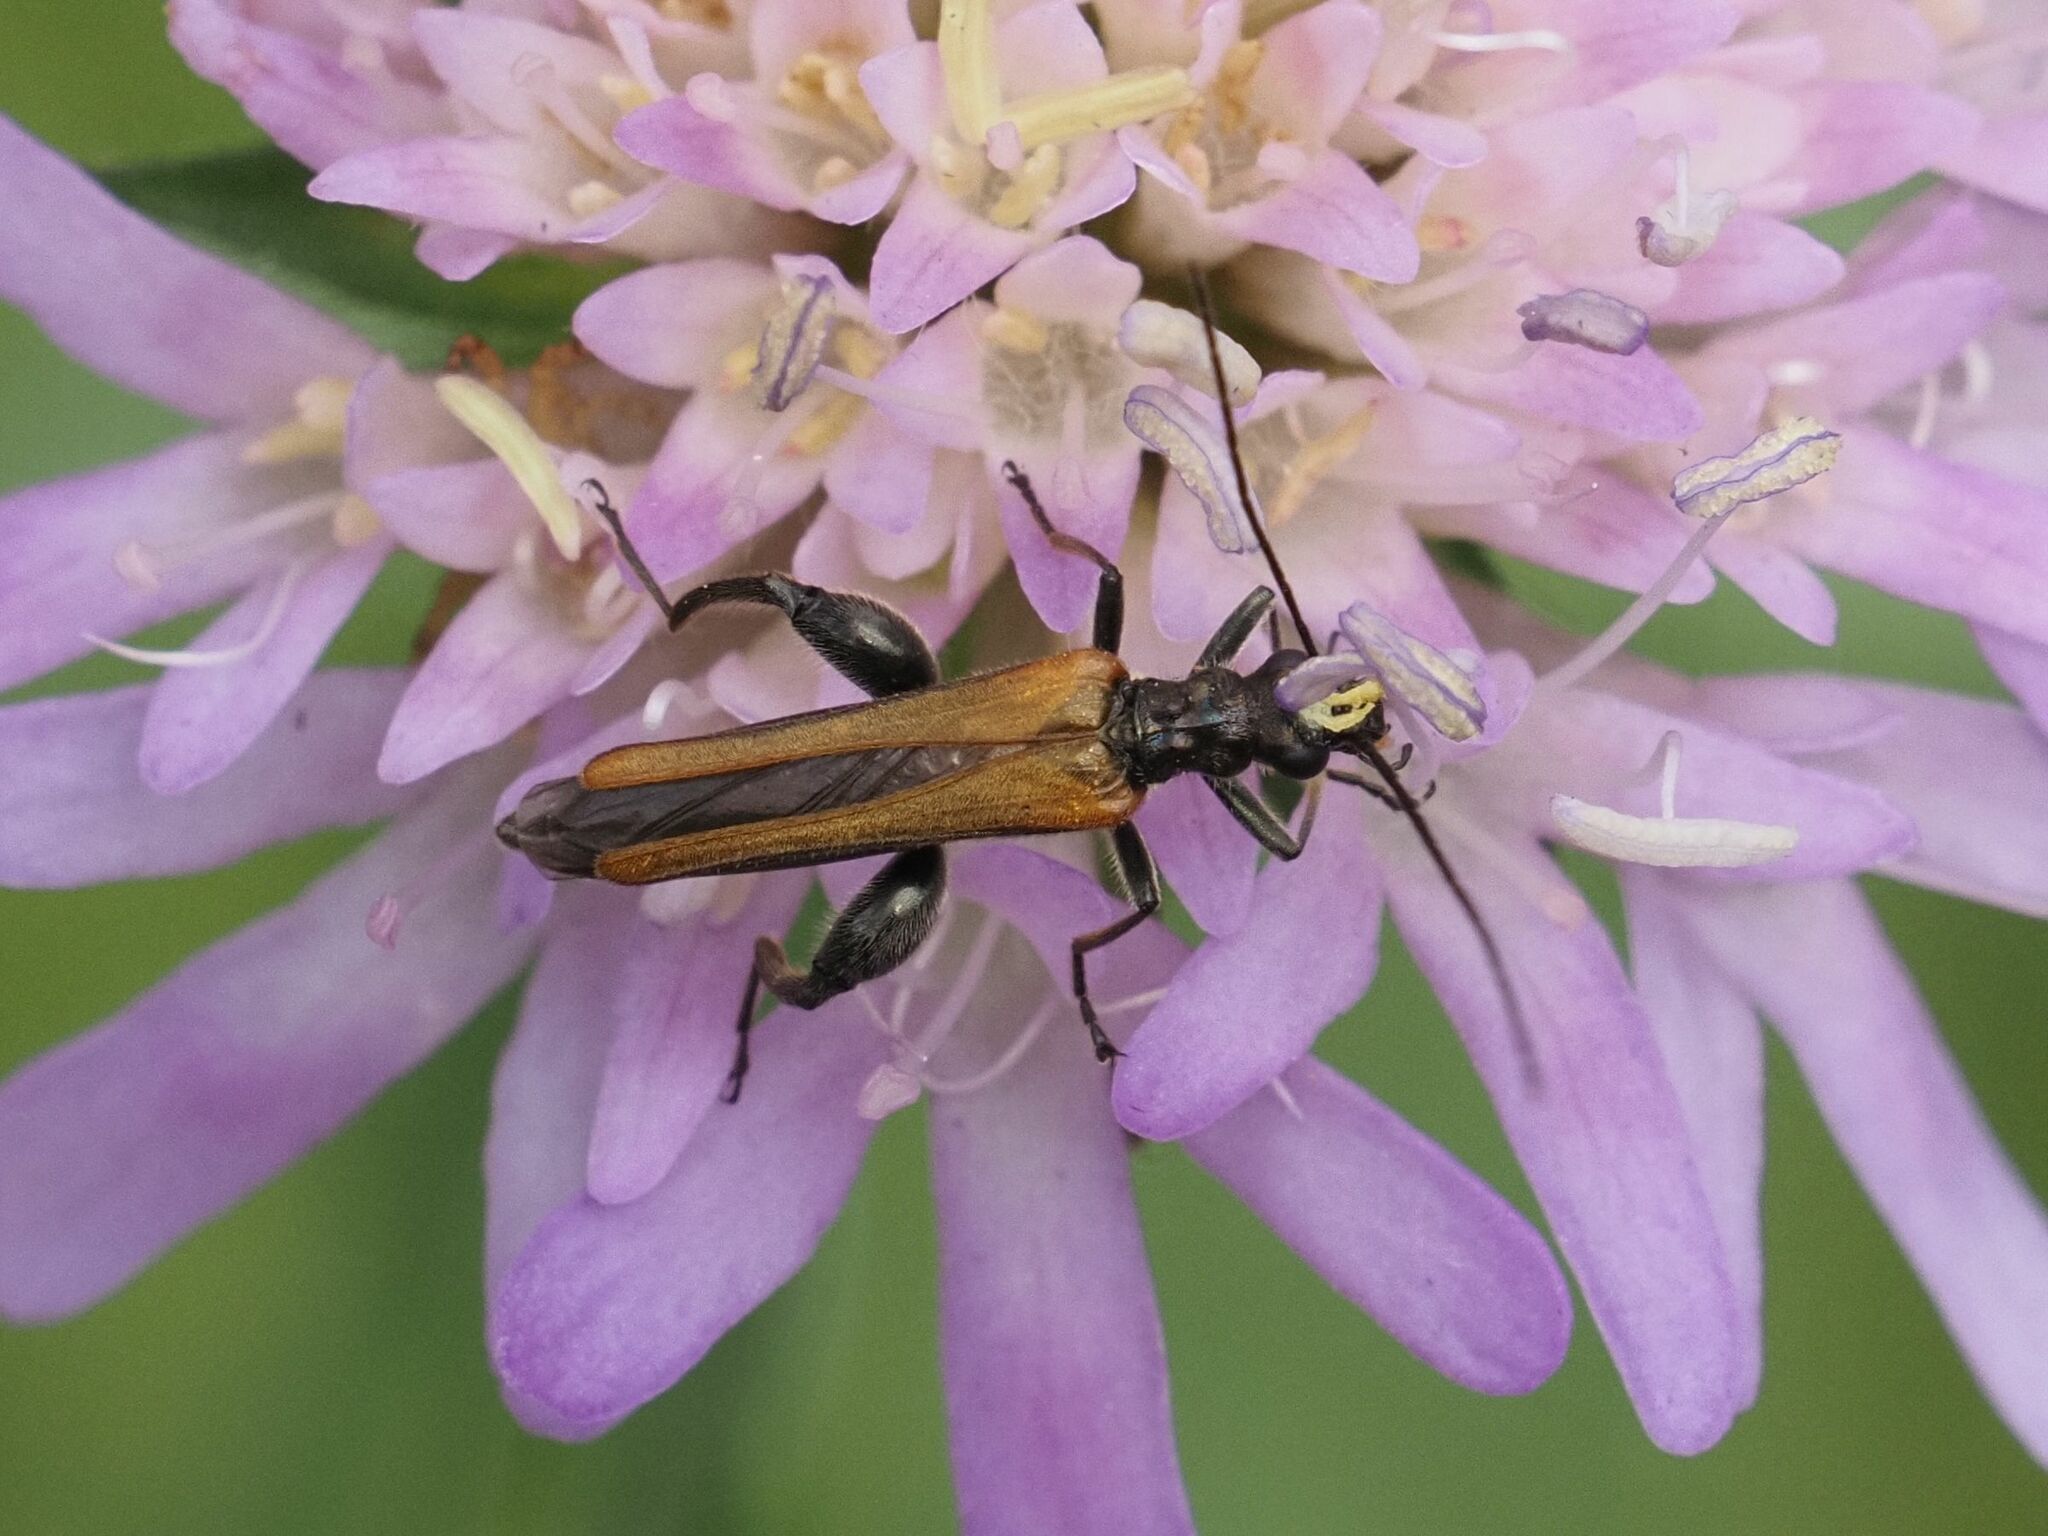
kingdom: Animalia
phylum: Arthropoda
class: Insecta
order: Coleoptera
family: Oedemeridae
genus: Oedemera
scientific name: Oedemera femorata
